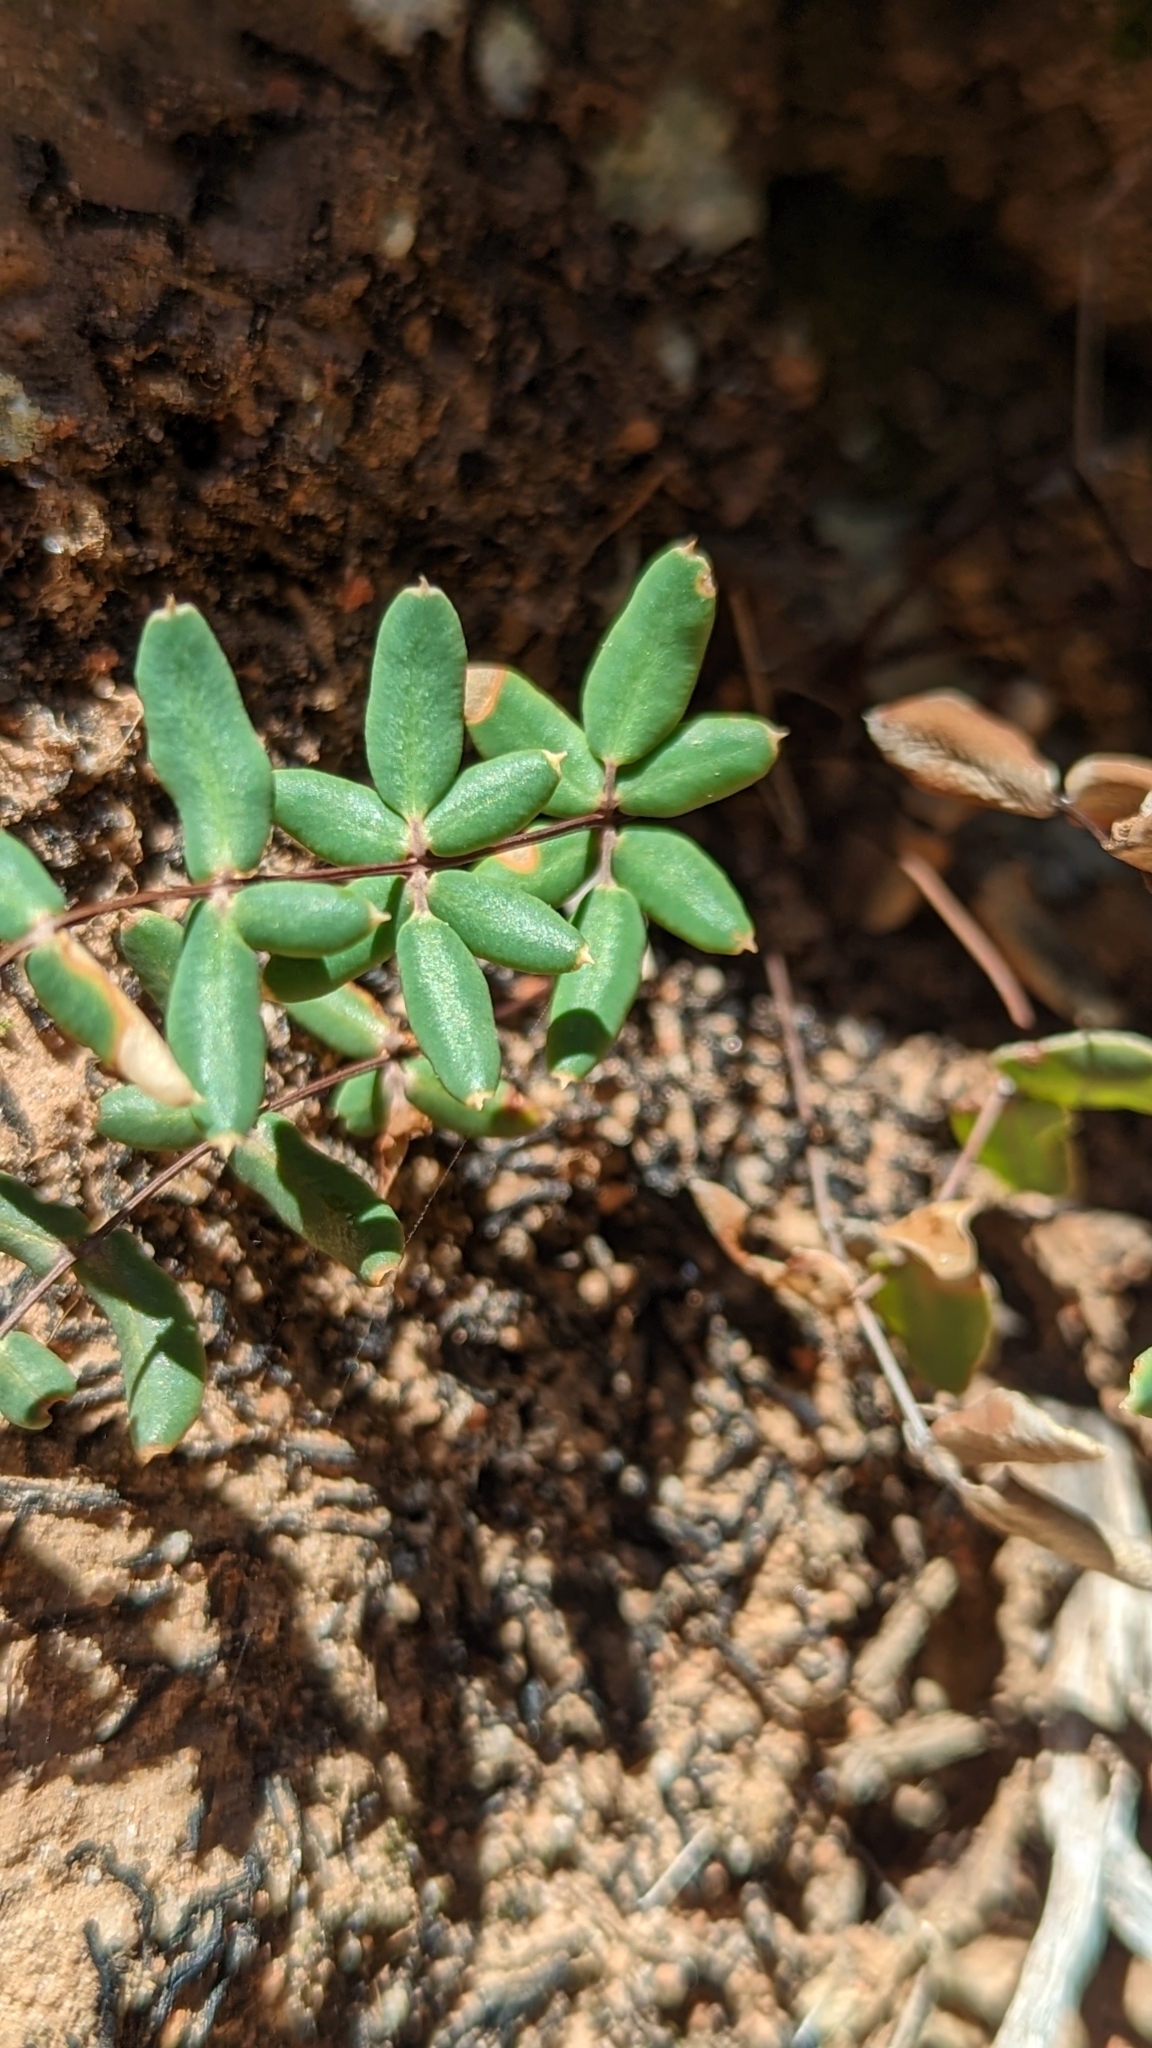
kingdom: Plantae
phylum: Tracheophyta
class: Polypodiopsida
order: Polypodiales
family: Pteridaceae
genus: Pellaea
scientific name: Pellaea wrightiana
